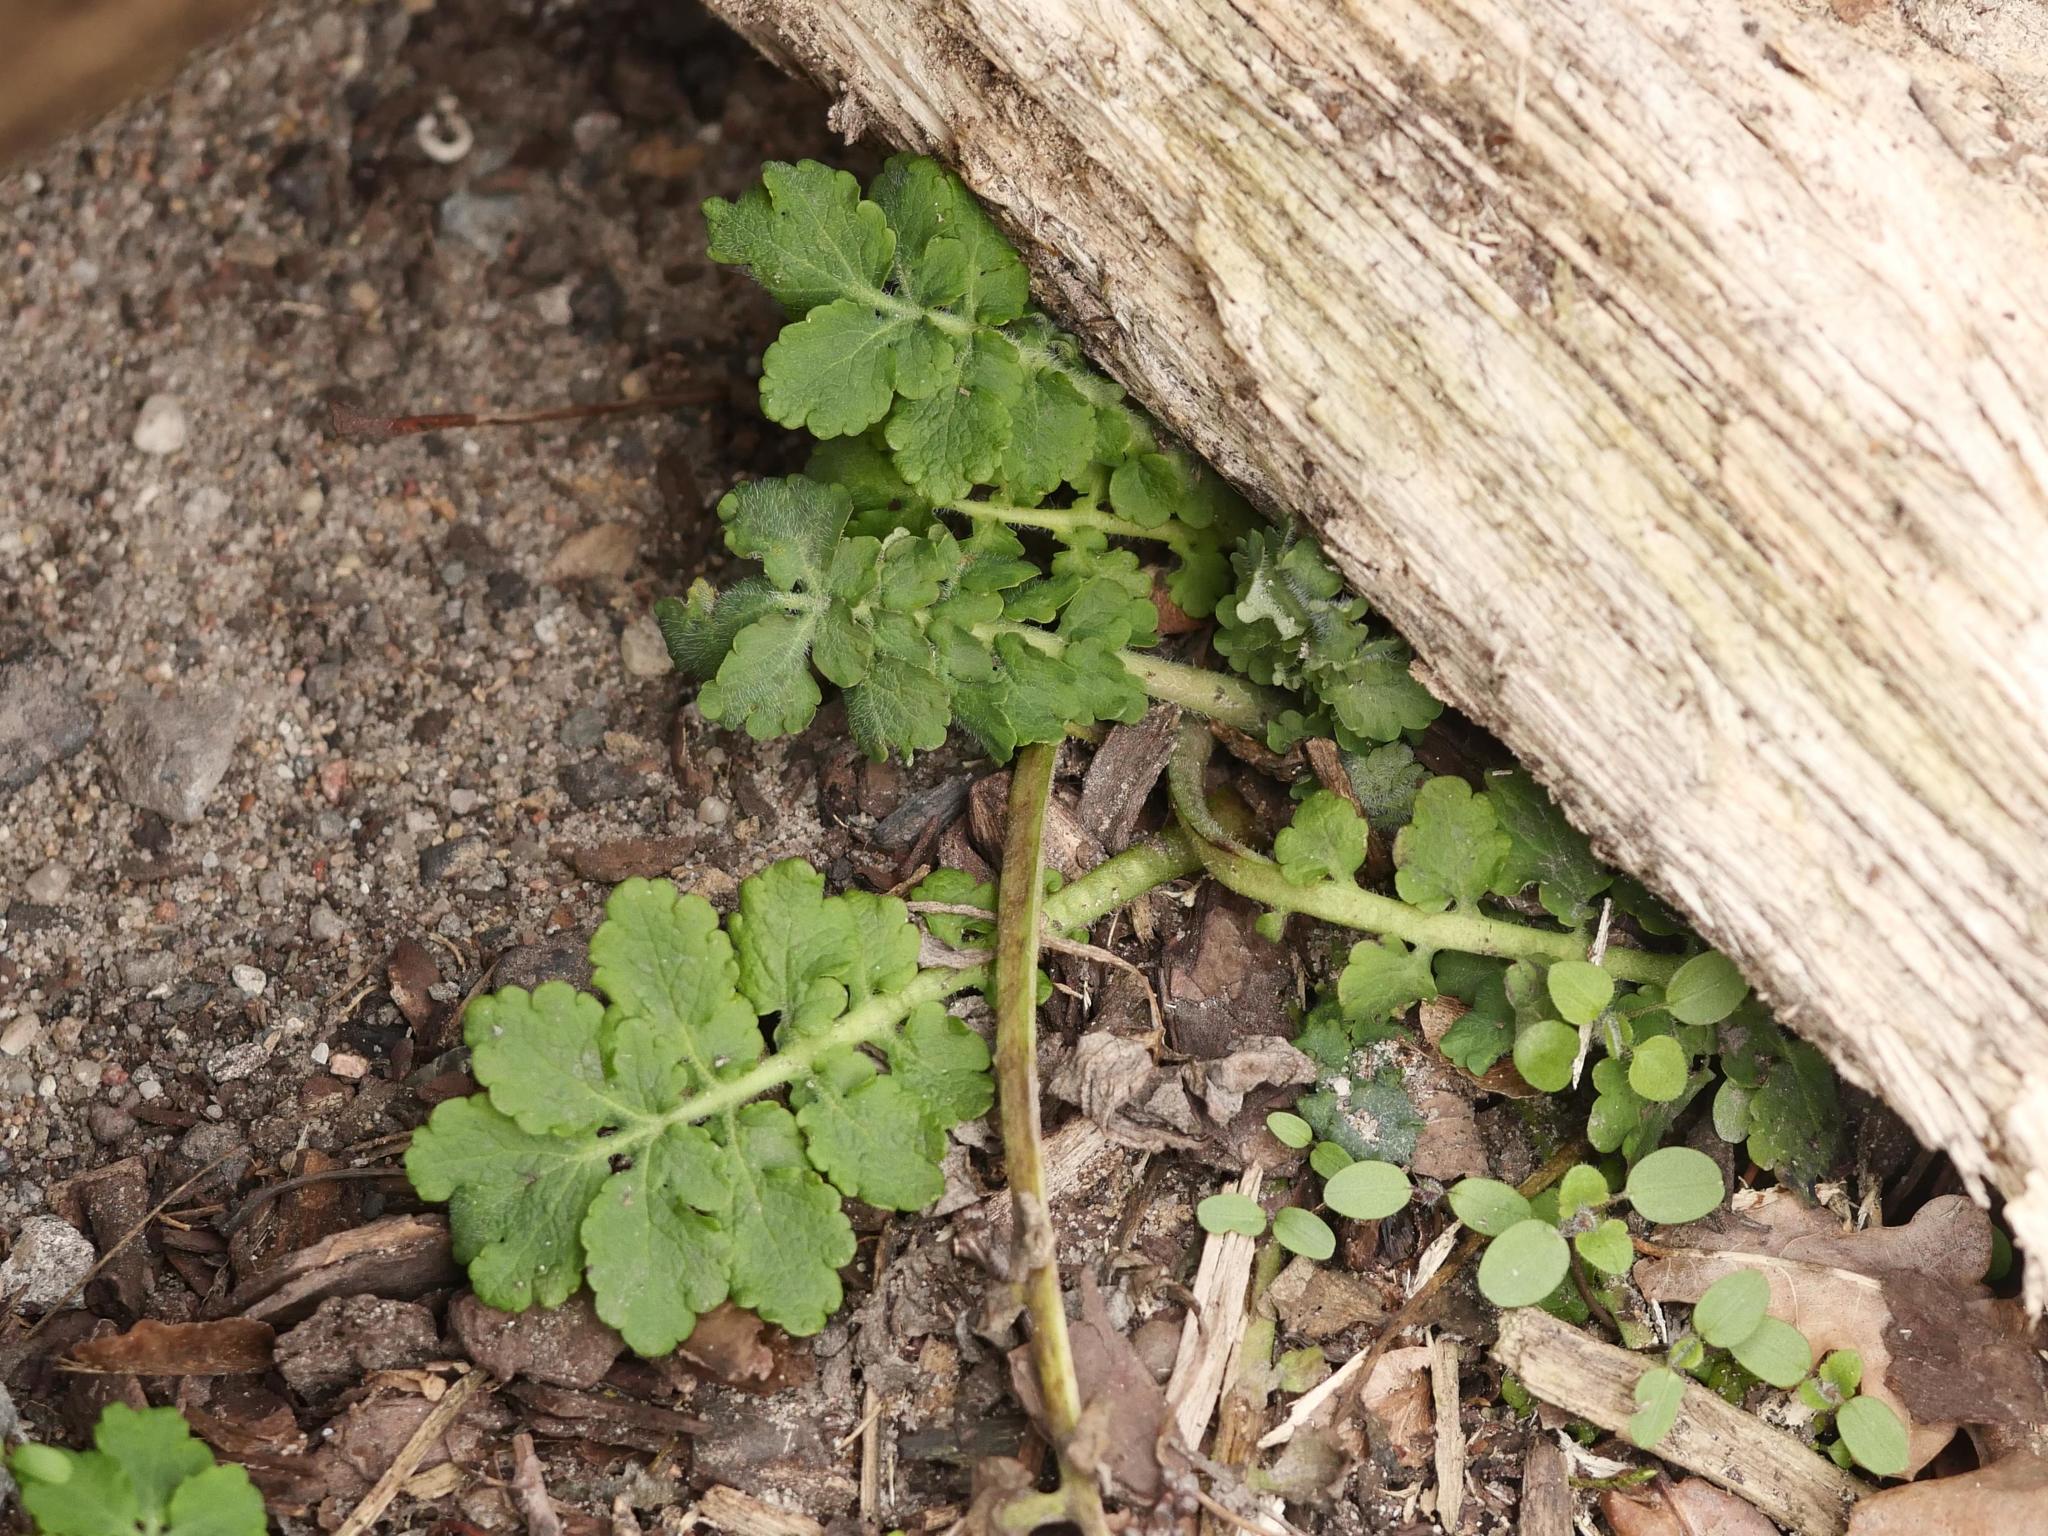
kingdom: Plantae
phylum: Tracheophyta
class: Magnoliopsida
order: Ranunculales
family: Papaveraceae
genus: Chelidonium
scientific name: Chelidonium majus
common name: Greater celandine
